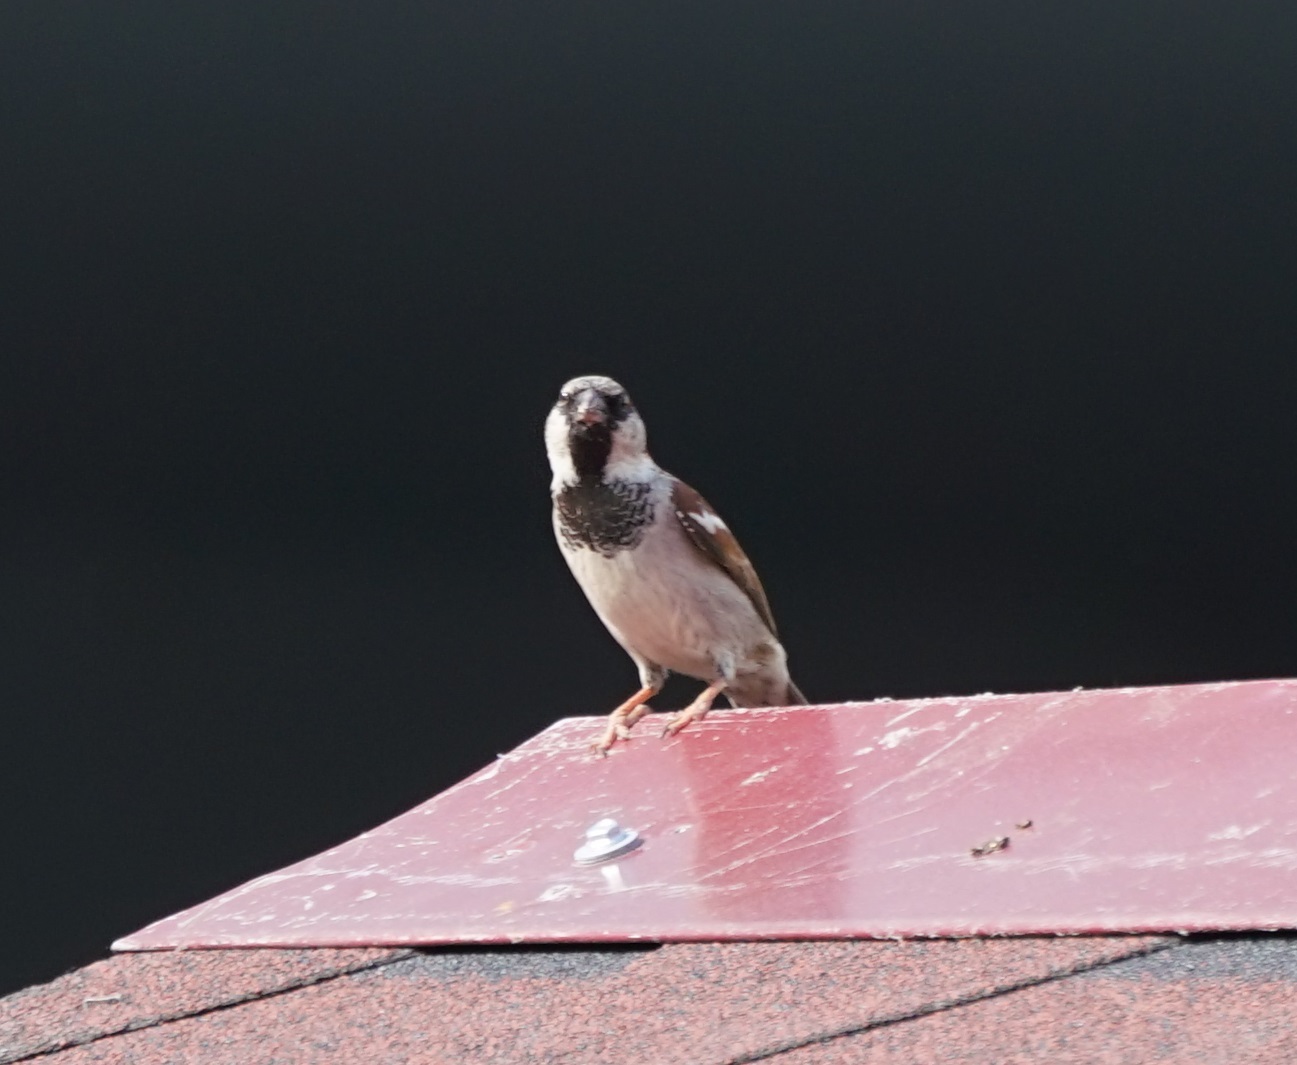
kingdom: Animalia
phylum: Chordata
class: Aves
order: Passeriformes
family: Passeridae
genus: Passer
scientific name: Passer domesticus
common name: House sparrow
